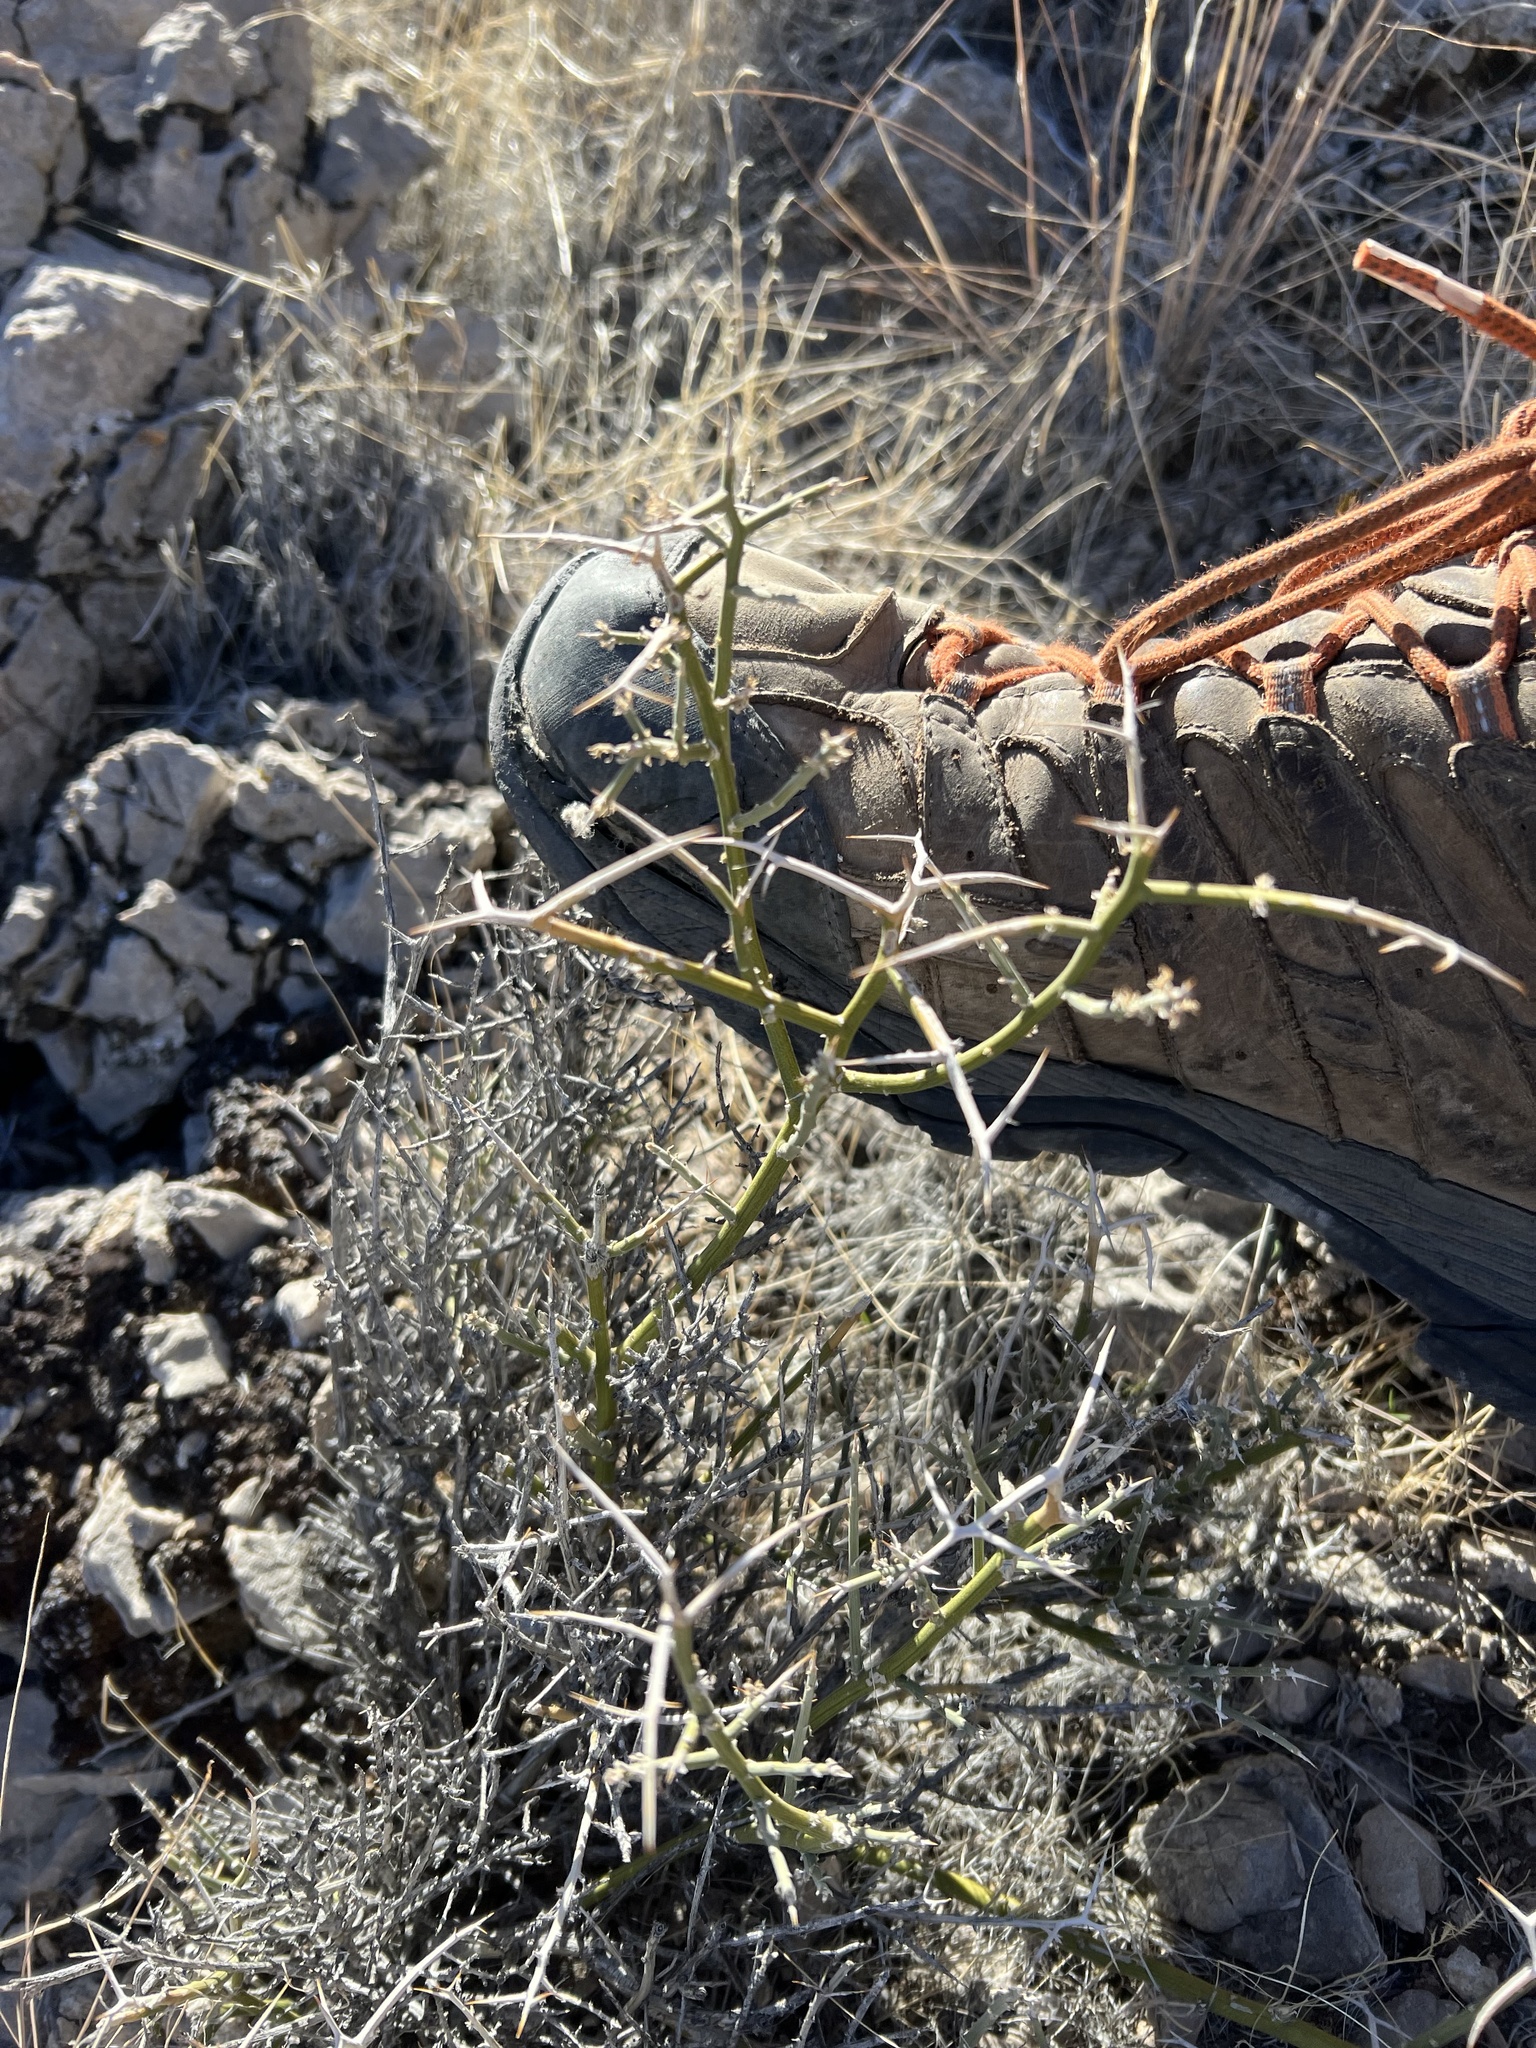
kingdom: Plantae
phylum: Tracheophyta
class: Magnoliopsida
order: Lamiales
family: Oleaceae
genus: Menodora
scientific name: Menodora spinescens
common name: Spiny menodora
